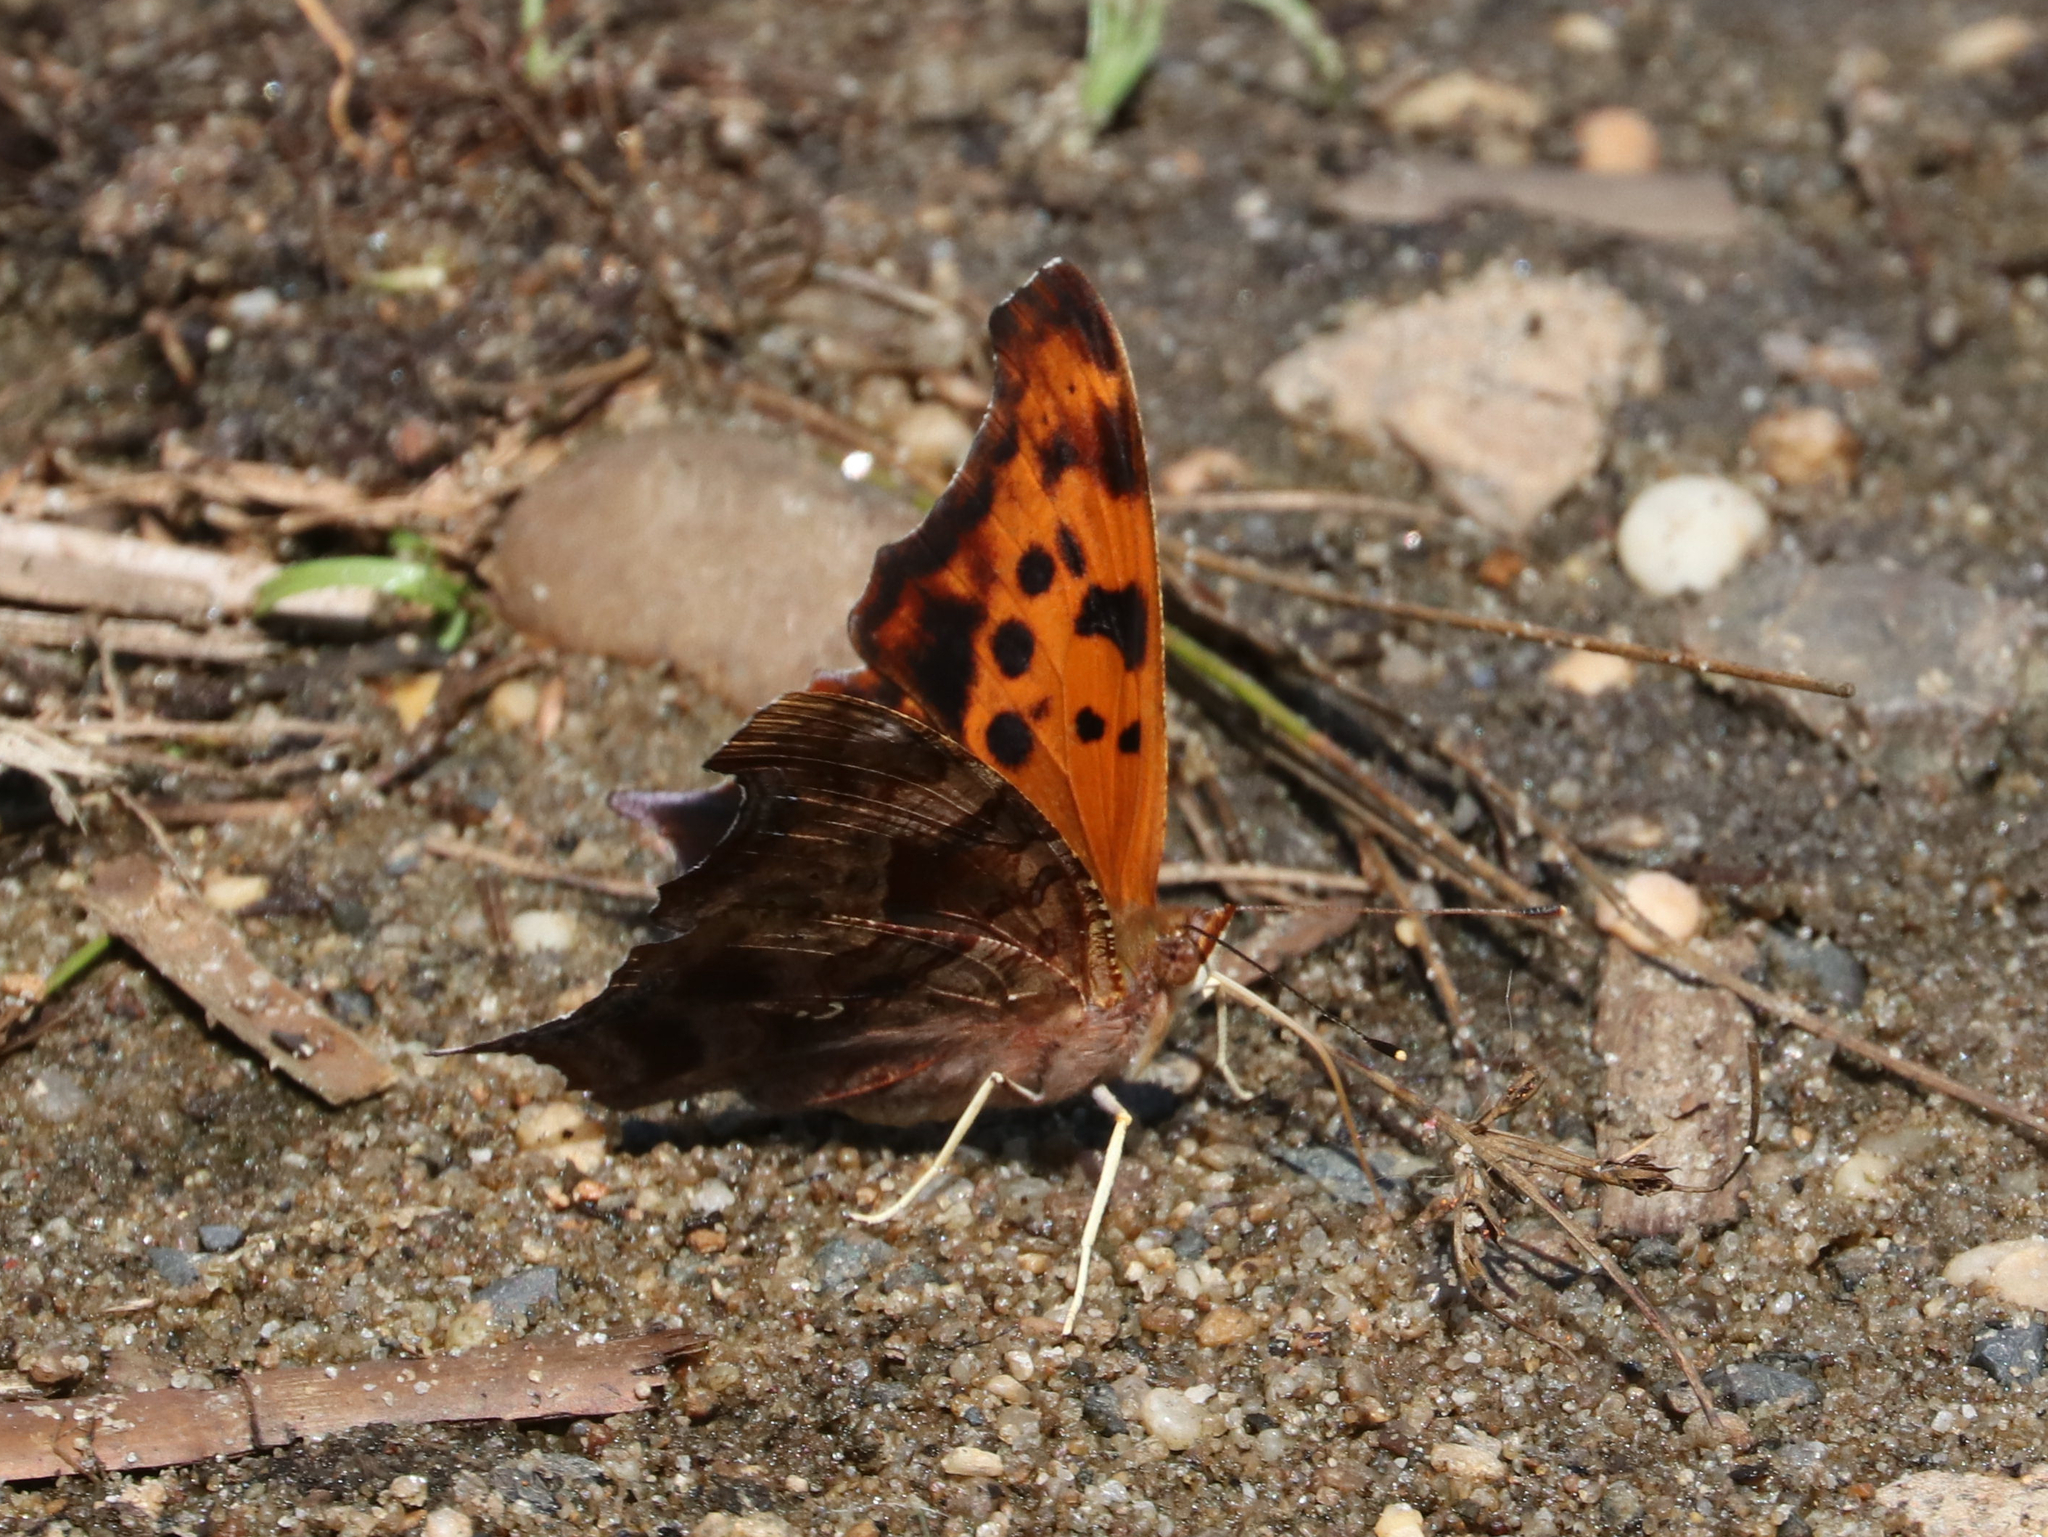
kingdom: Animalia
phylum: Arthropoda
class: Insecta
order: Lepidoptera
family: Nymphalidae
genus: Polygonia
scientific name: Polygonia interrogationis
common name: Question mark
